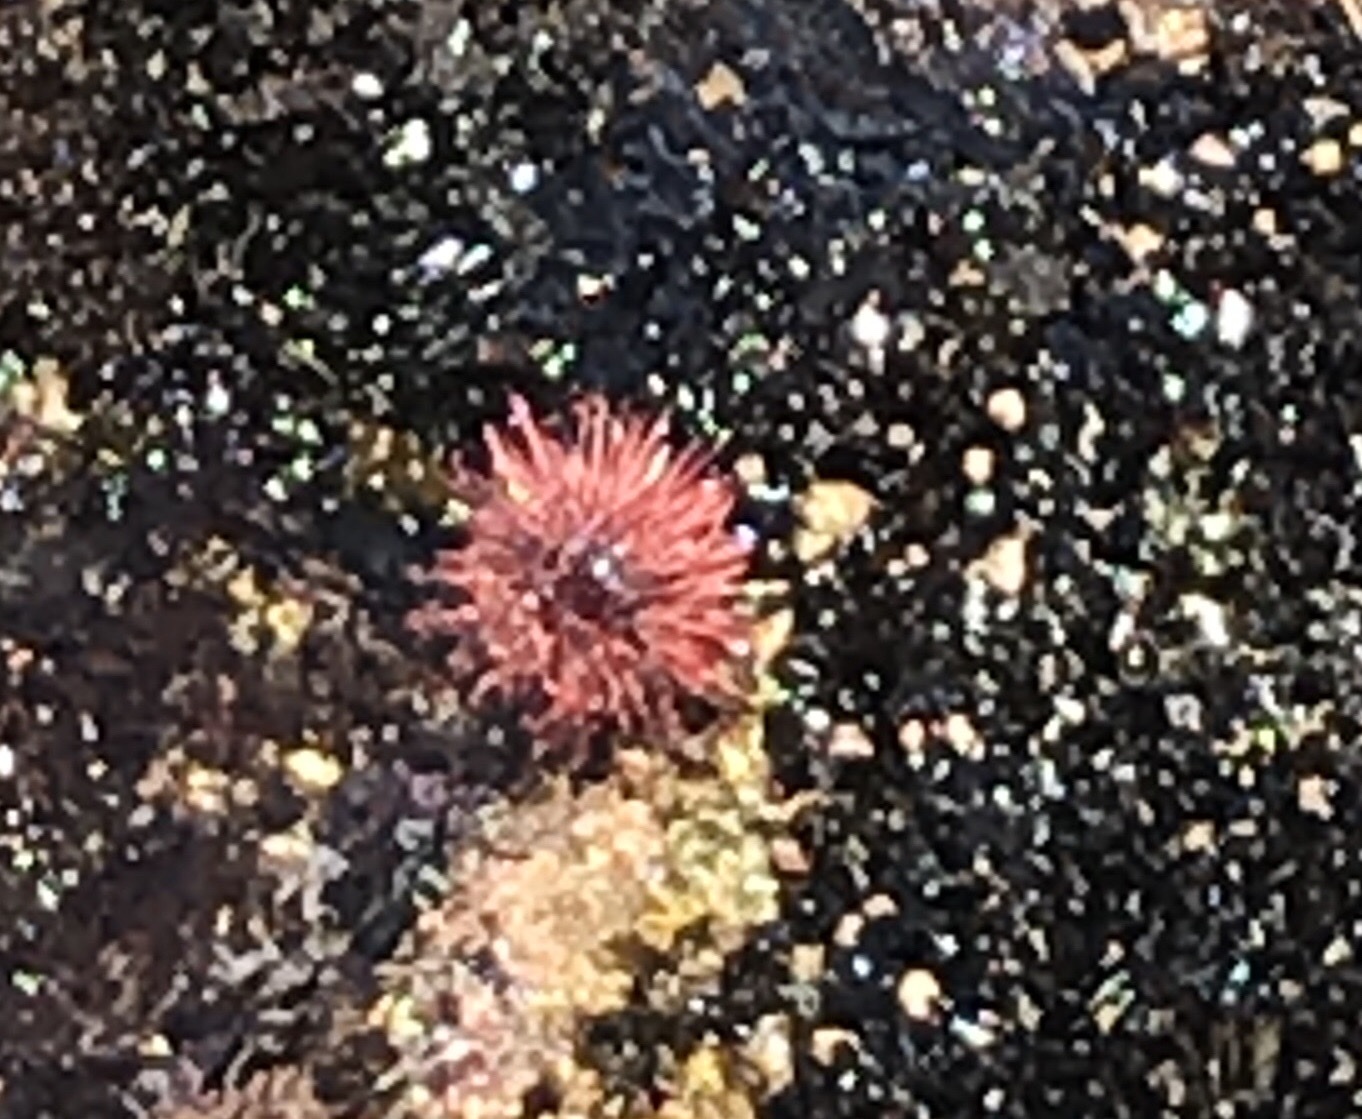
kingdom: Animalia
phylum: Echinodermata
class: Echinoidea
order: Camarodonta
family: Strongylocentrotidae
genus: Mesocentrotus
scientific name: Mesocentrotus franciscanus
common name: Red sea urchin
